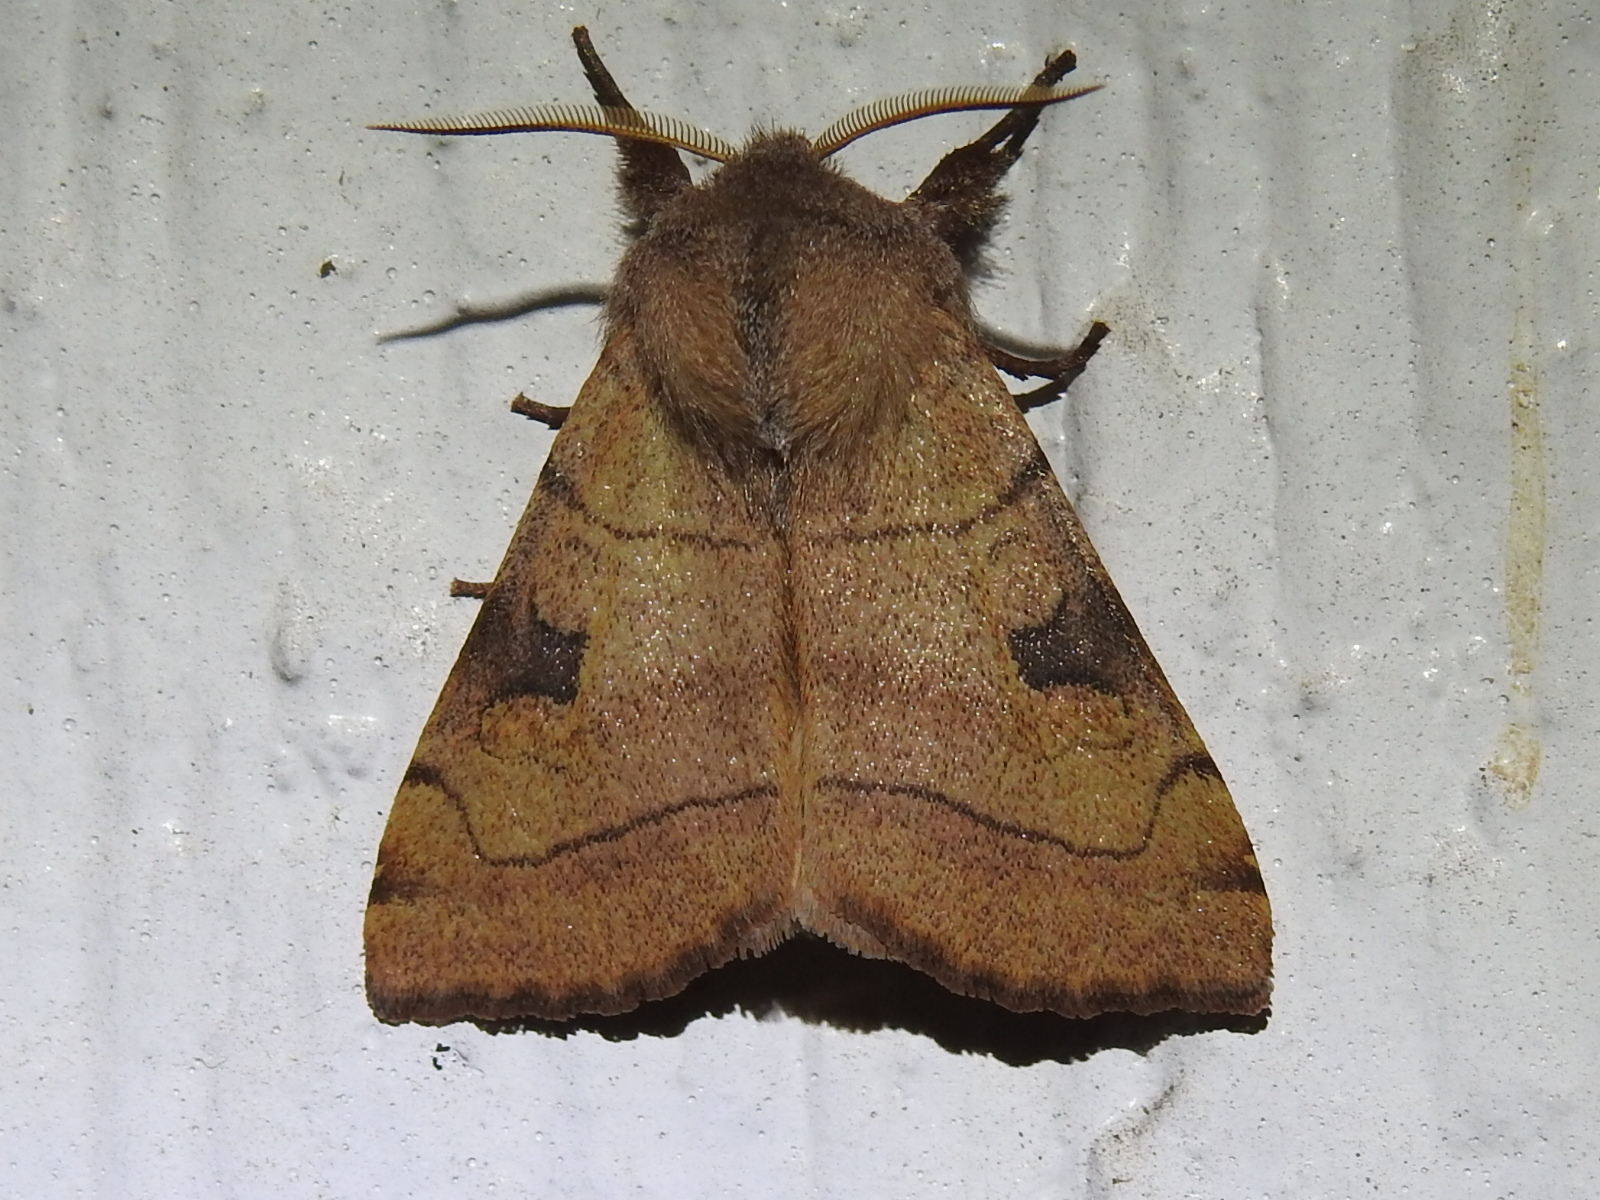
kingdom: Animalia
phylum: Arthropoda
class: Insecta
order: Lepidoptera
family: Noctuidae
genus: Choephora
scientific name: Choephora fungorum
